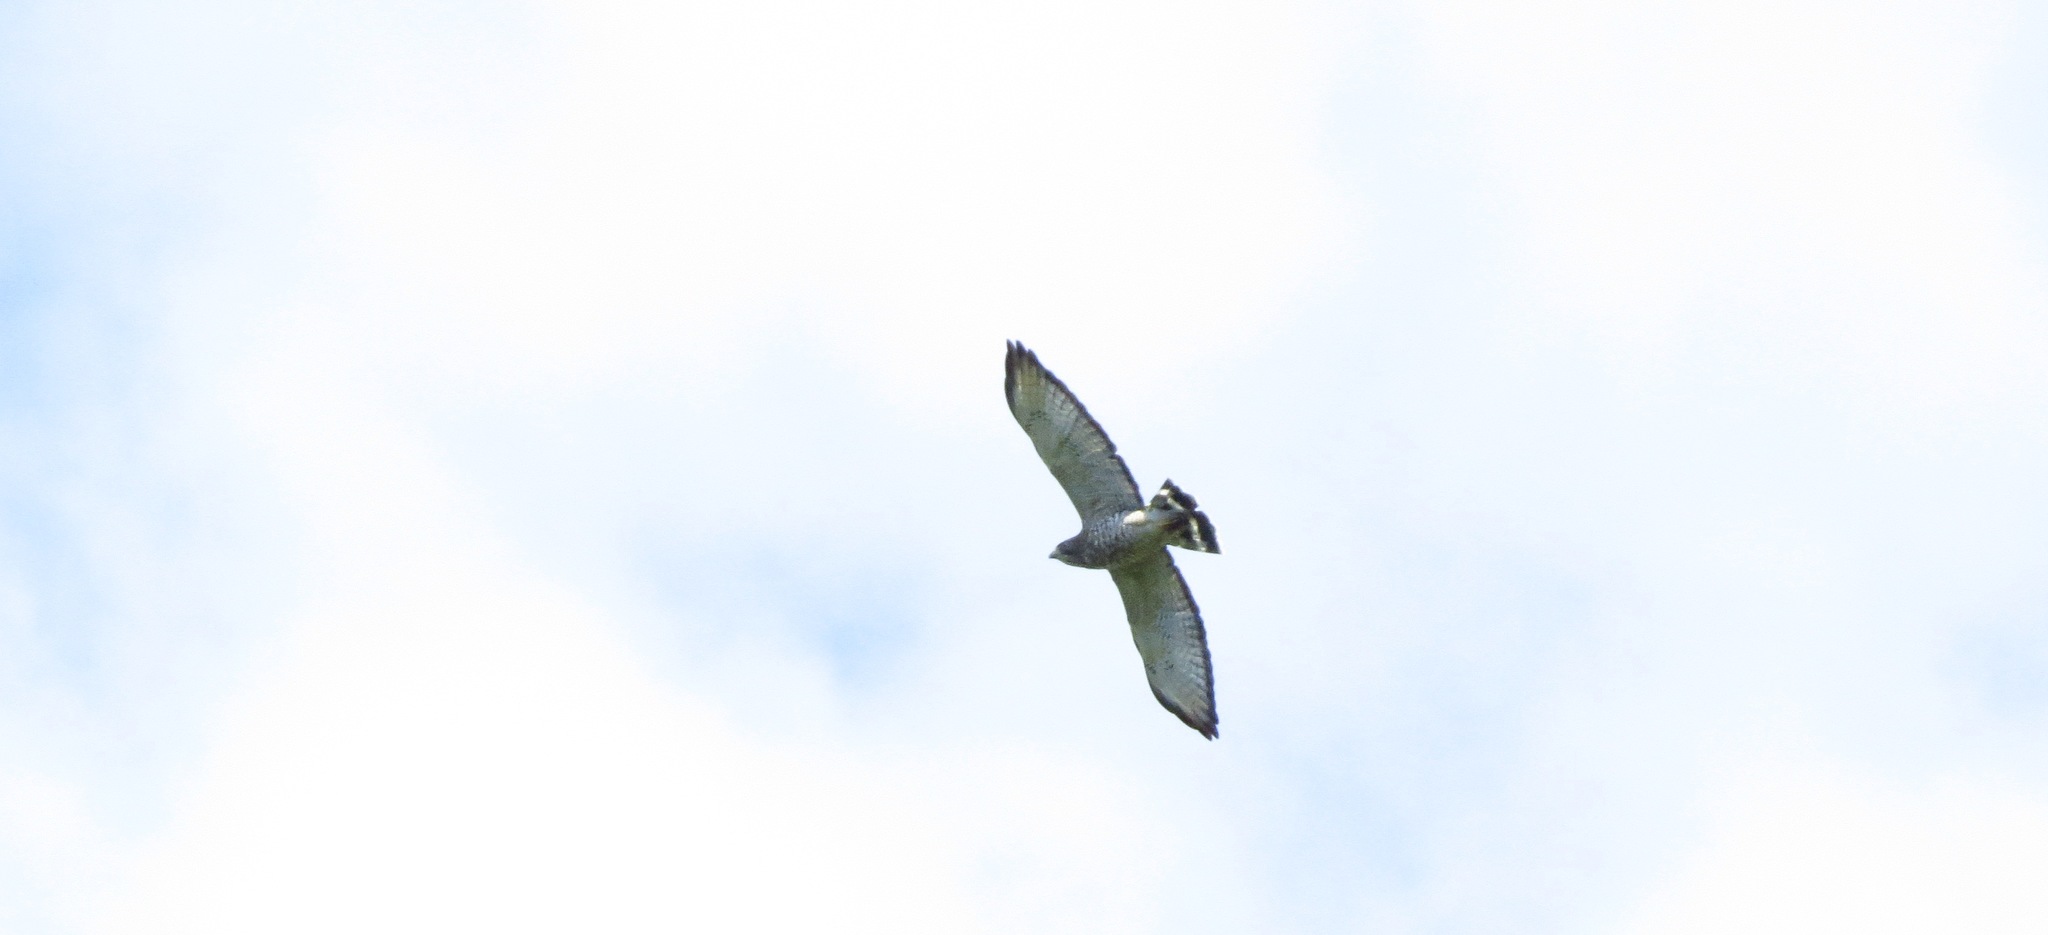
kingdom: Animalia
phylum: Chordata
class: Aves
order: Accipitriformes
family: Accipitridae
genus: Buteo
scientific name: Buteo platypterus
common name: Broad-winged hawk
